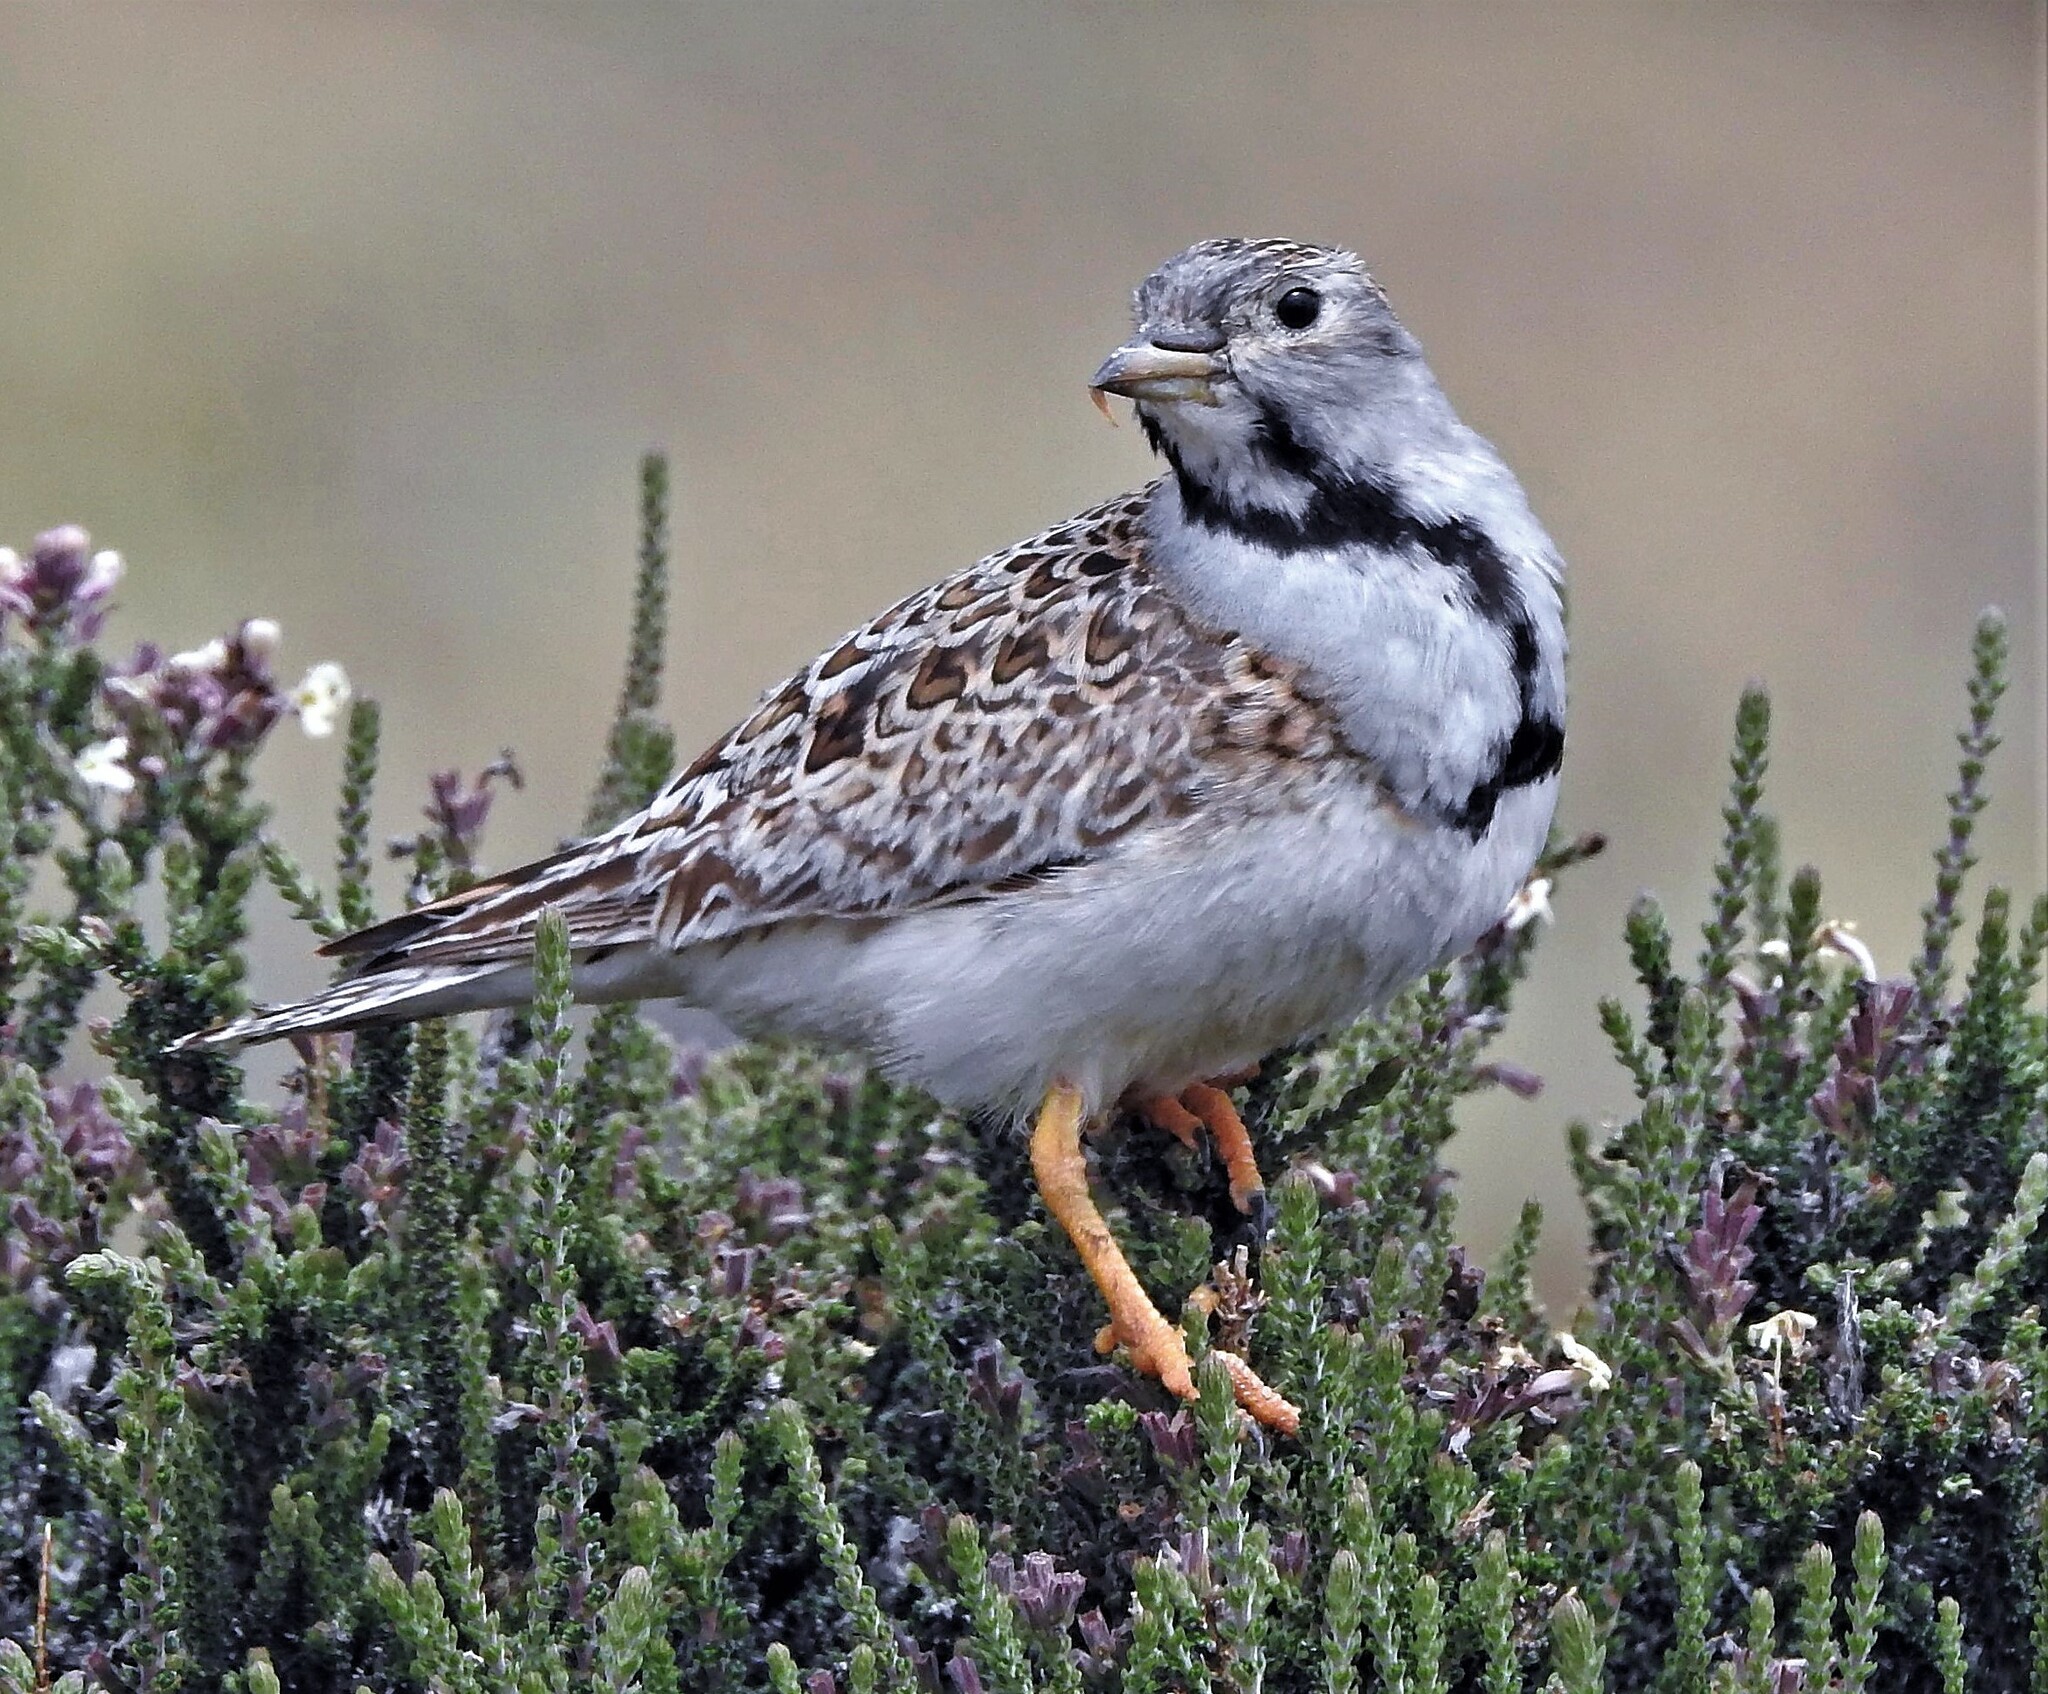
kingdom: Animalia
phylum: Chordata
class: Aves
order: Charadriiformes
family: Thinocoridae
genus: Thinocorus
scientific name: Thinocorus rumicivorus
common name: Least seedsnipe
